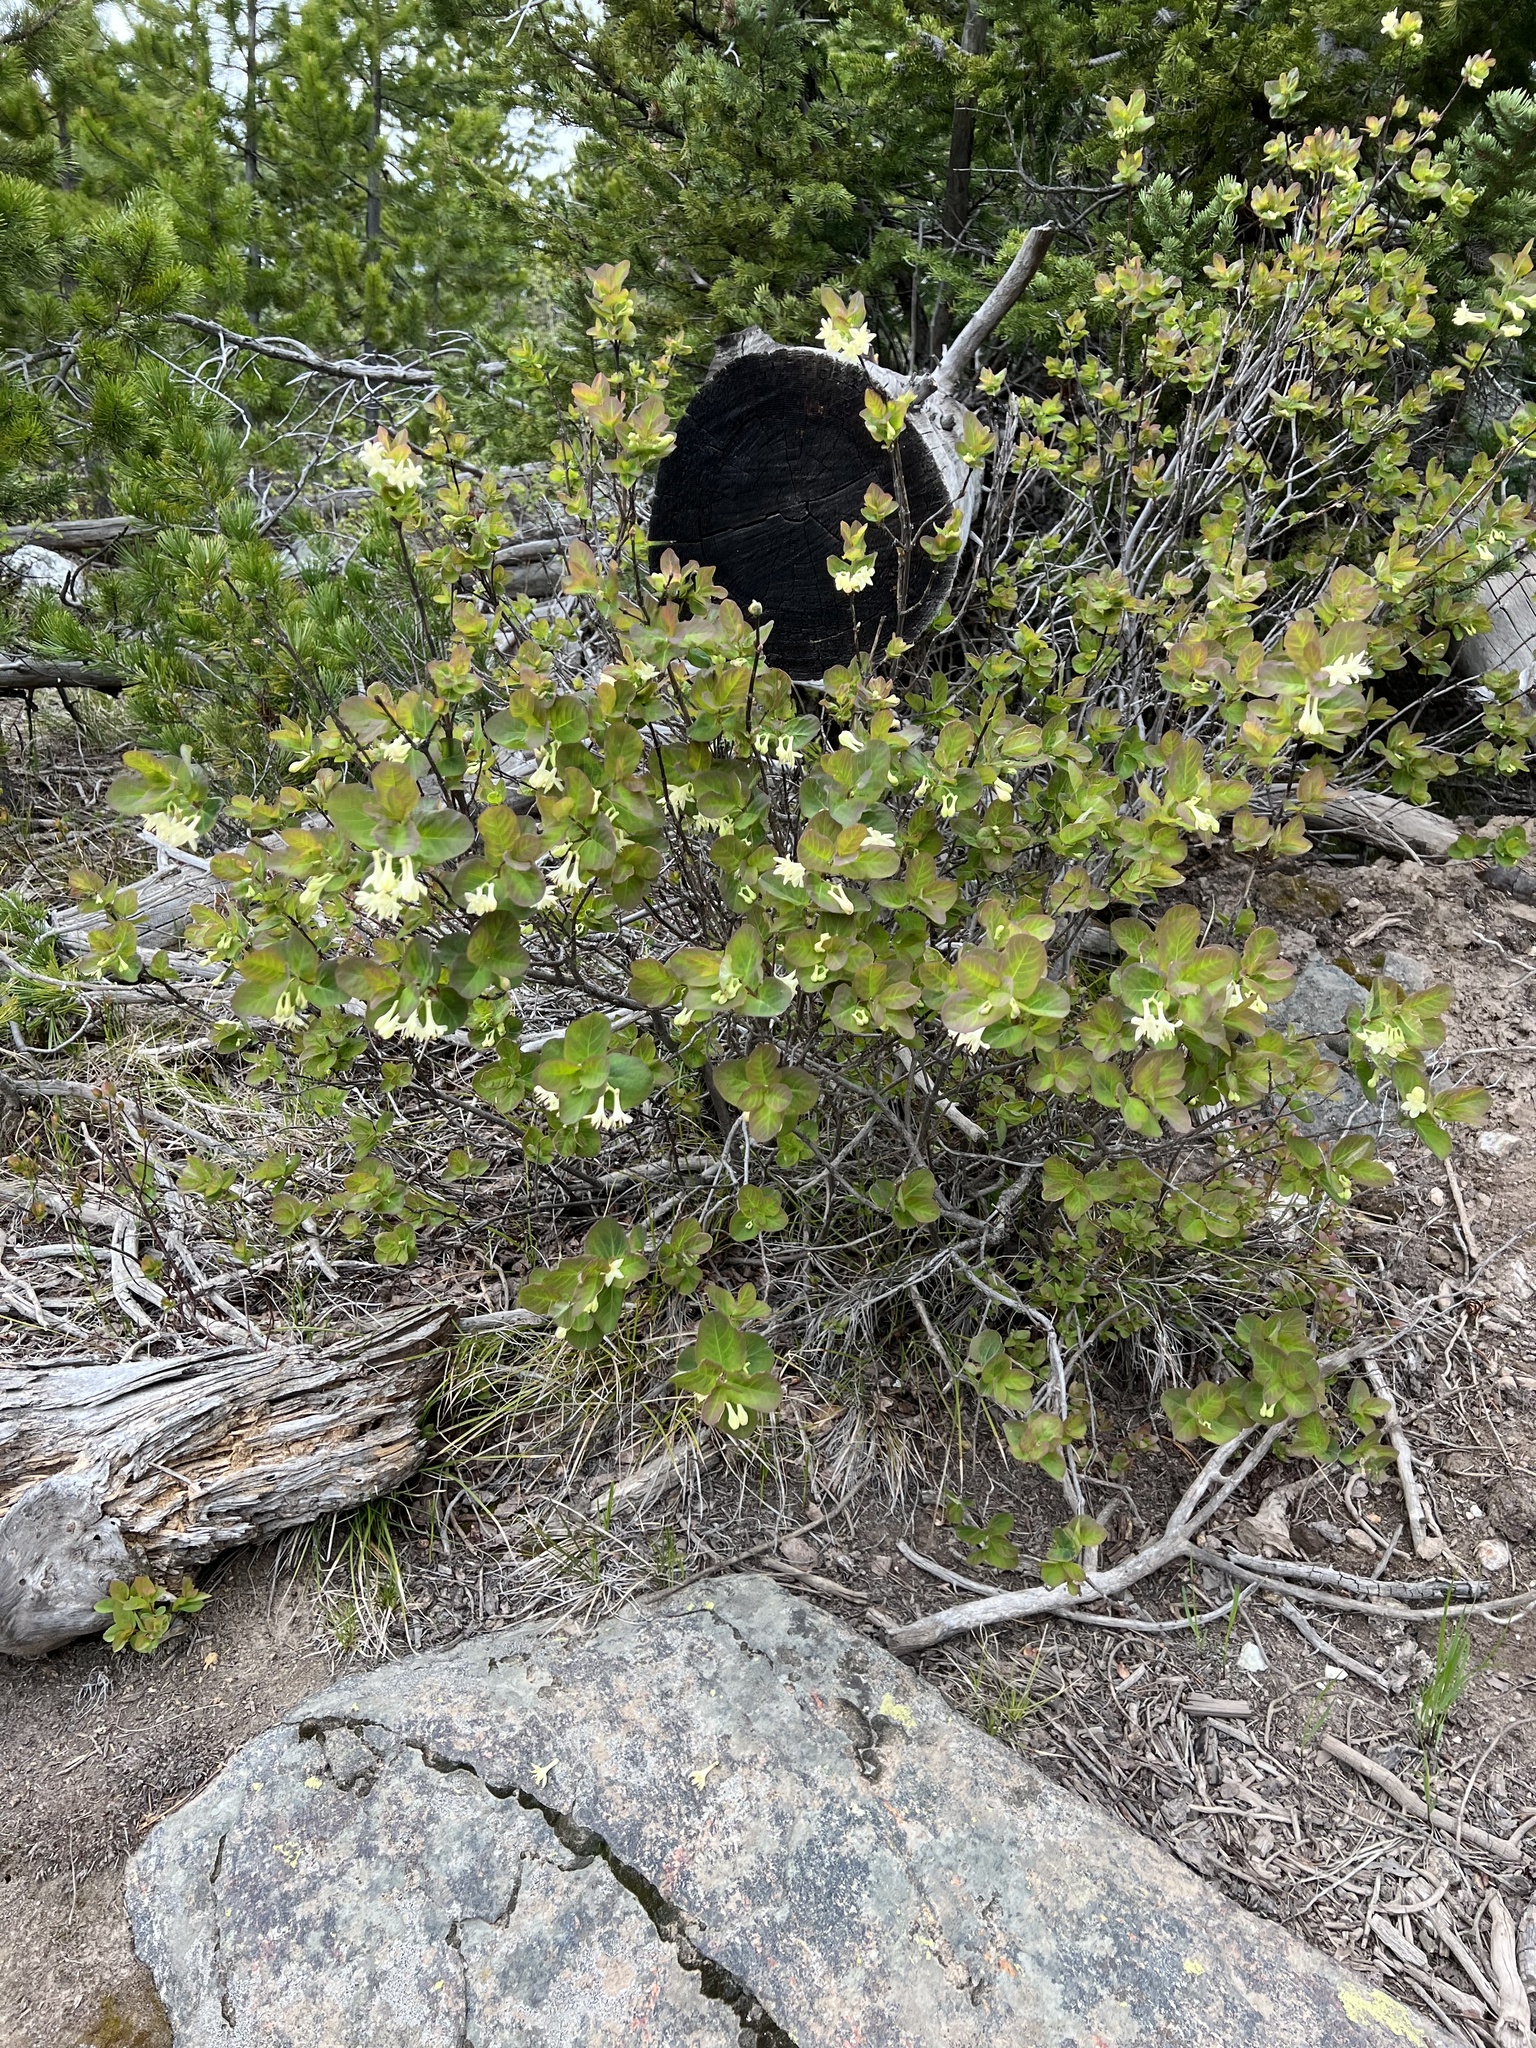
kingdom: Plantae
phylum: Tracheophyta
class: Magnoliopsida
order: Dipsacales
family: Caprifoliaceae
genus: Lonicera
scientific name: Lonicera utahensis
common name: Utah honeysuckle
